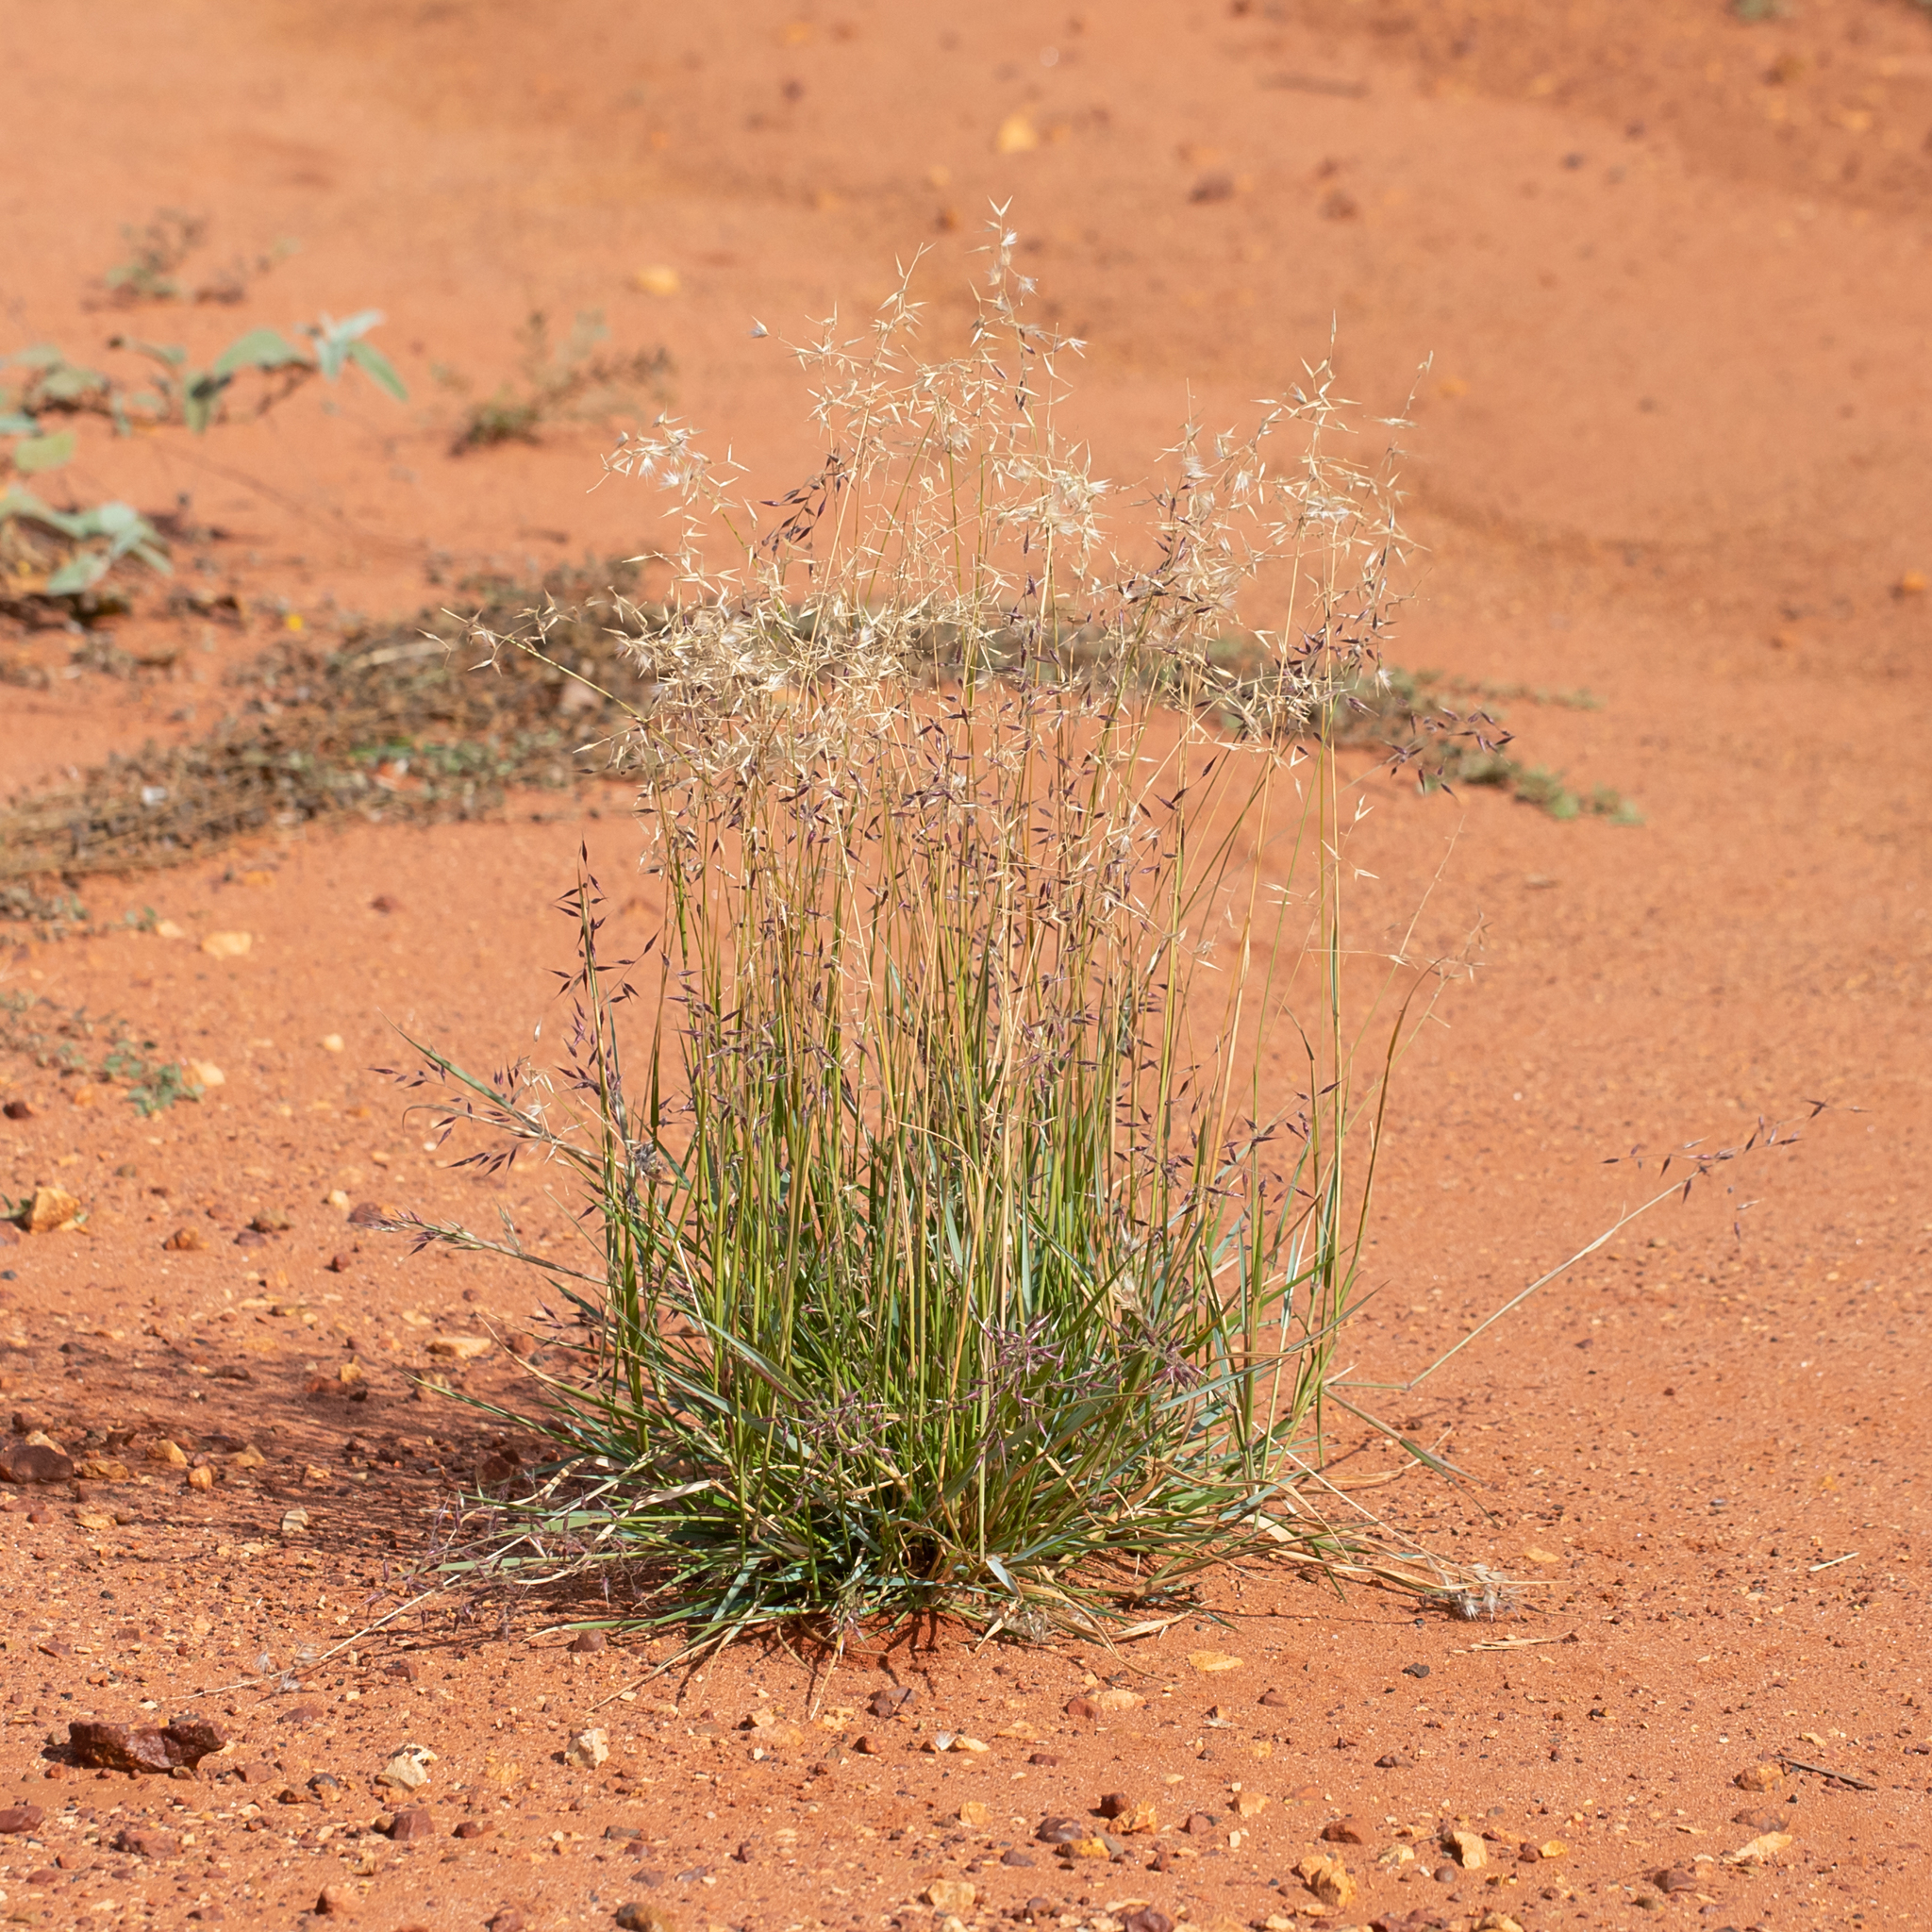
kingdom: Plantae
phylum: Tracheophyta
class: Liliopsida
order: Poales
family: Poaceae
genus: Eriachne
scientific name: Eriachne aristidea
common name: Three-awn wanderrie grass
